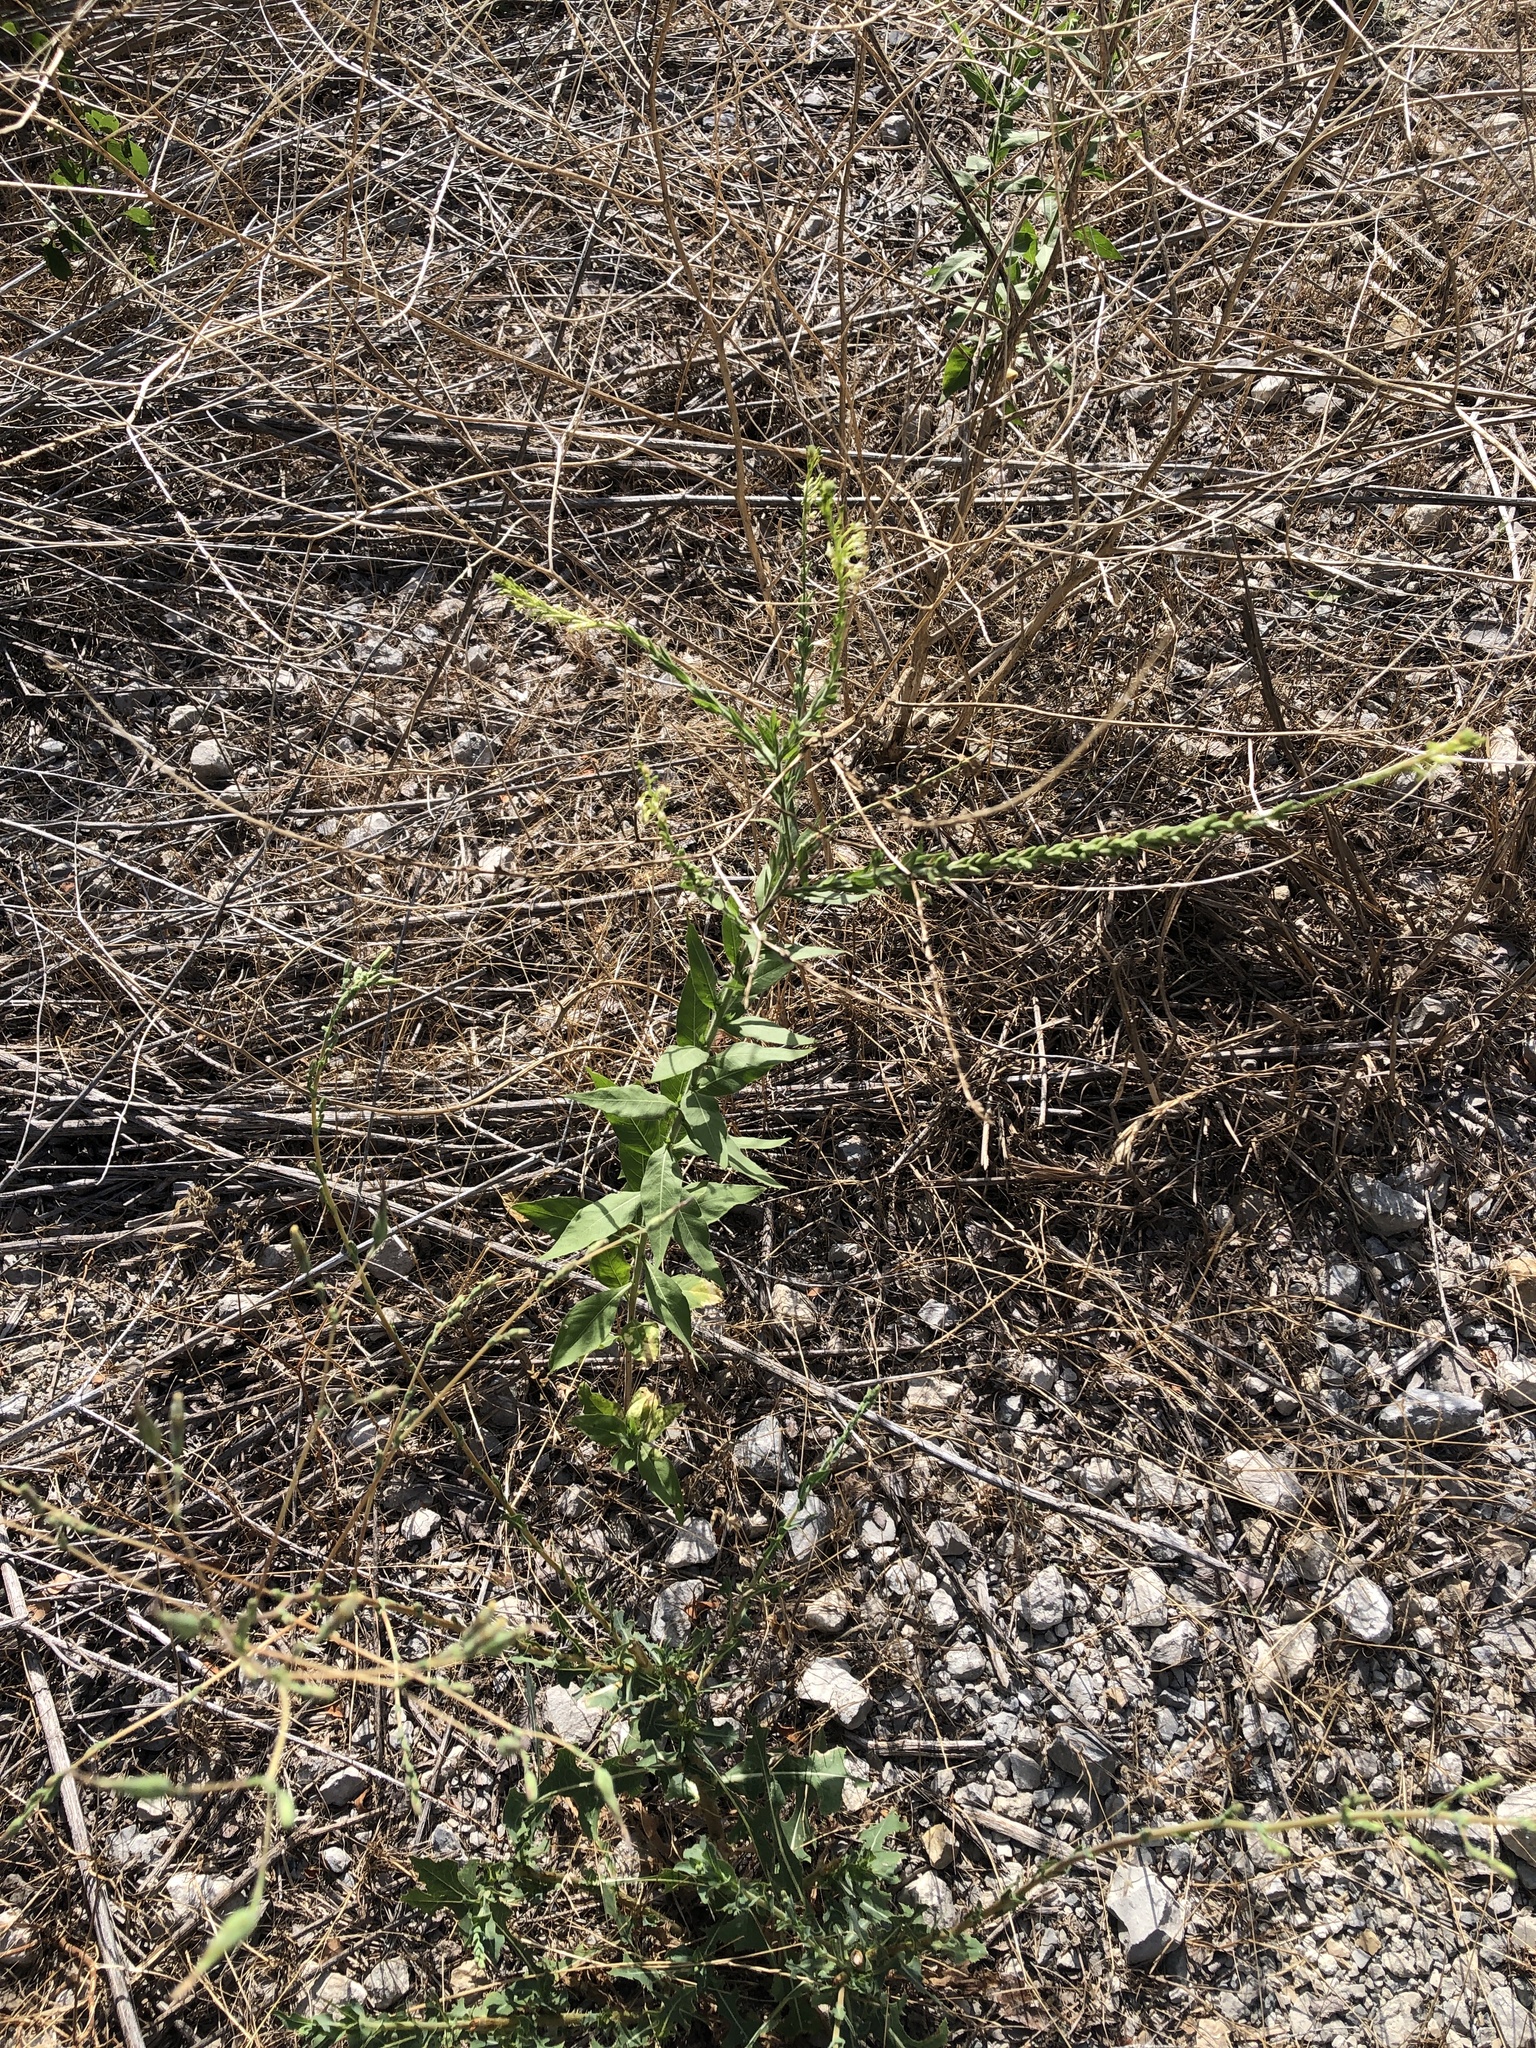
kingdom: Plantae
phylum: Tracheophyta
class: Magnoliopsida
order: Myrtales
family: Onagraceae
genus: Oenothera
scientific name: Oenothera curtiflora
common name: Velvetweed
